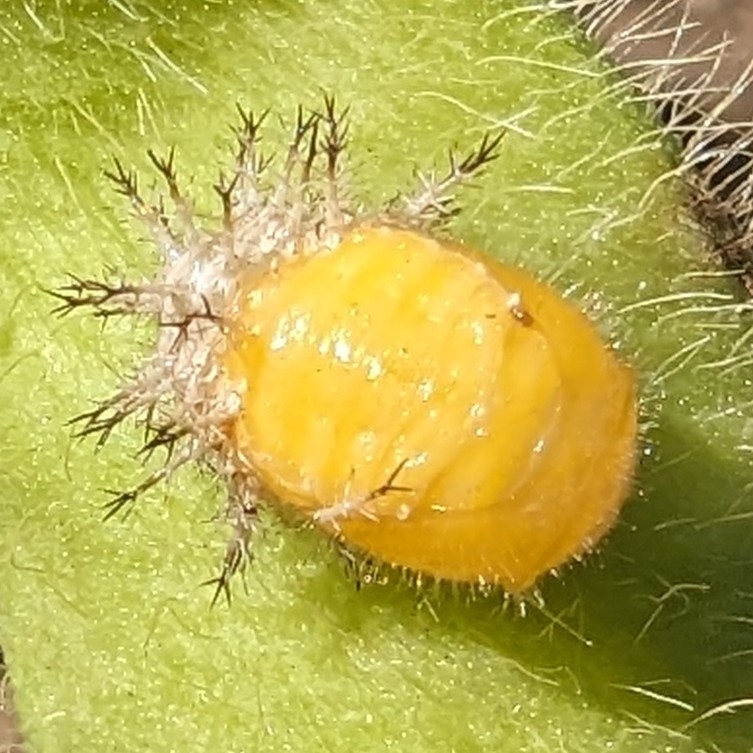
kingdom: Animalia
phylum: Arthropoda
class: Insecta
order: Coleoptera
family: Coccinellidae
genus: Epilachna
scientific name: Epilachna varivestis
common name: Ladybird beetle
